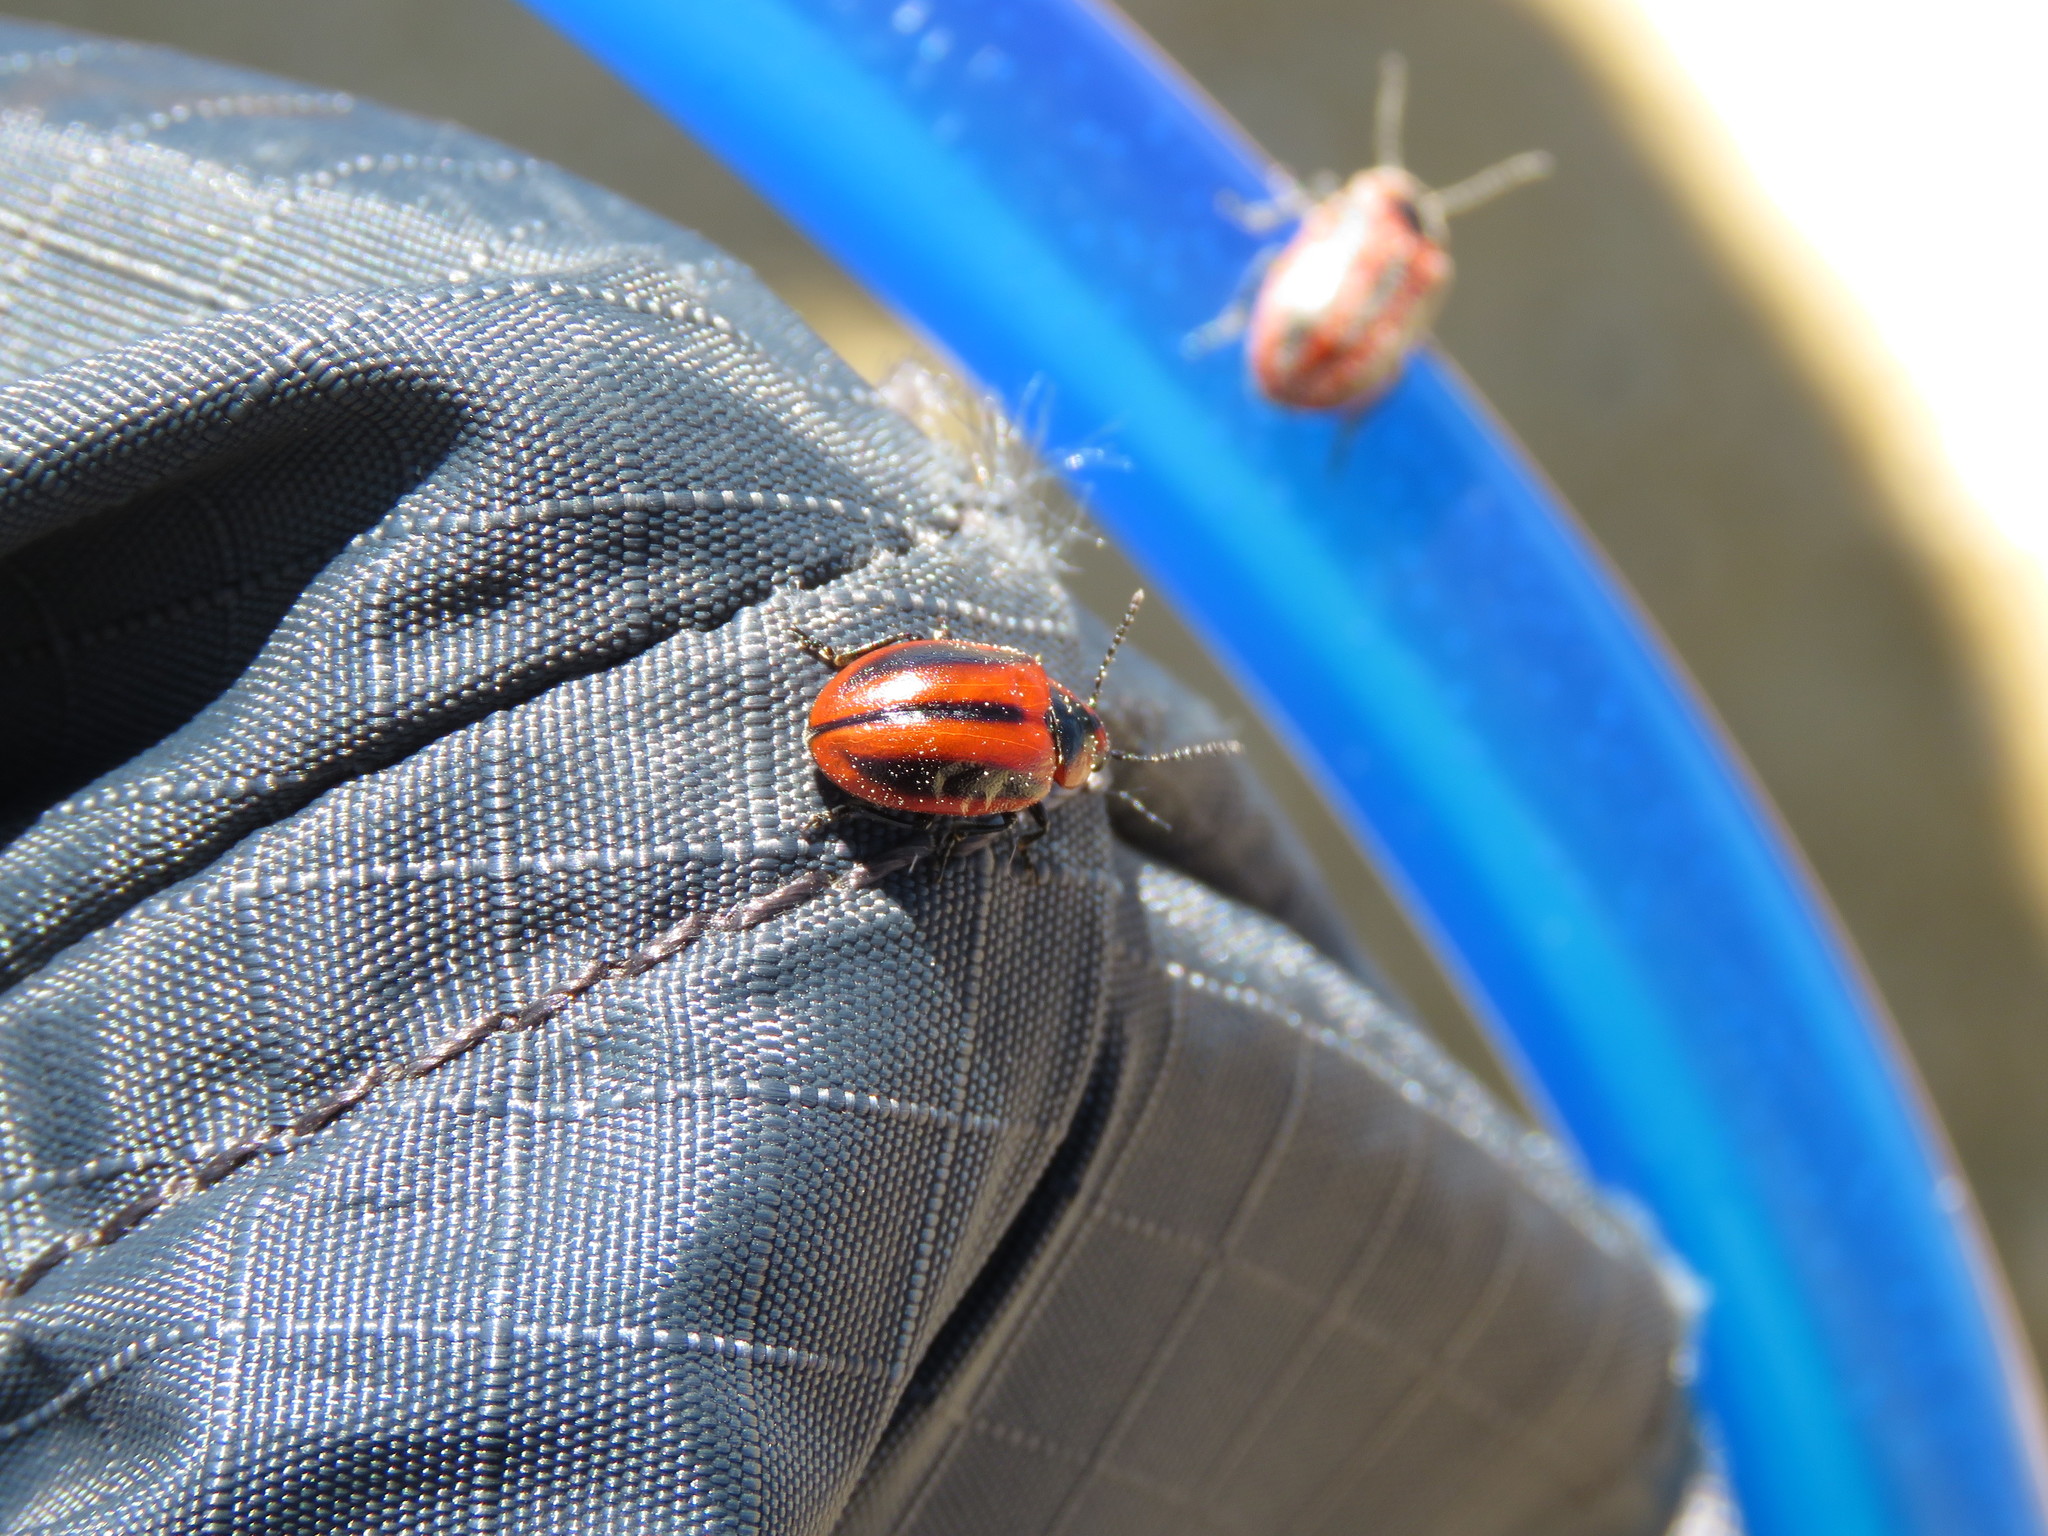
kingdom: Animalia
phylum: Arthropoda
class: Insecta
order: Coleoptera
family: Chrysomelidae
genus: Entomoscelis
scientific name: Entomoscelis americana
